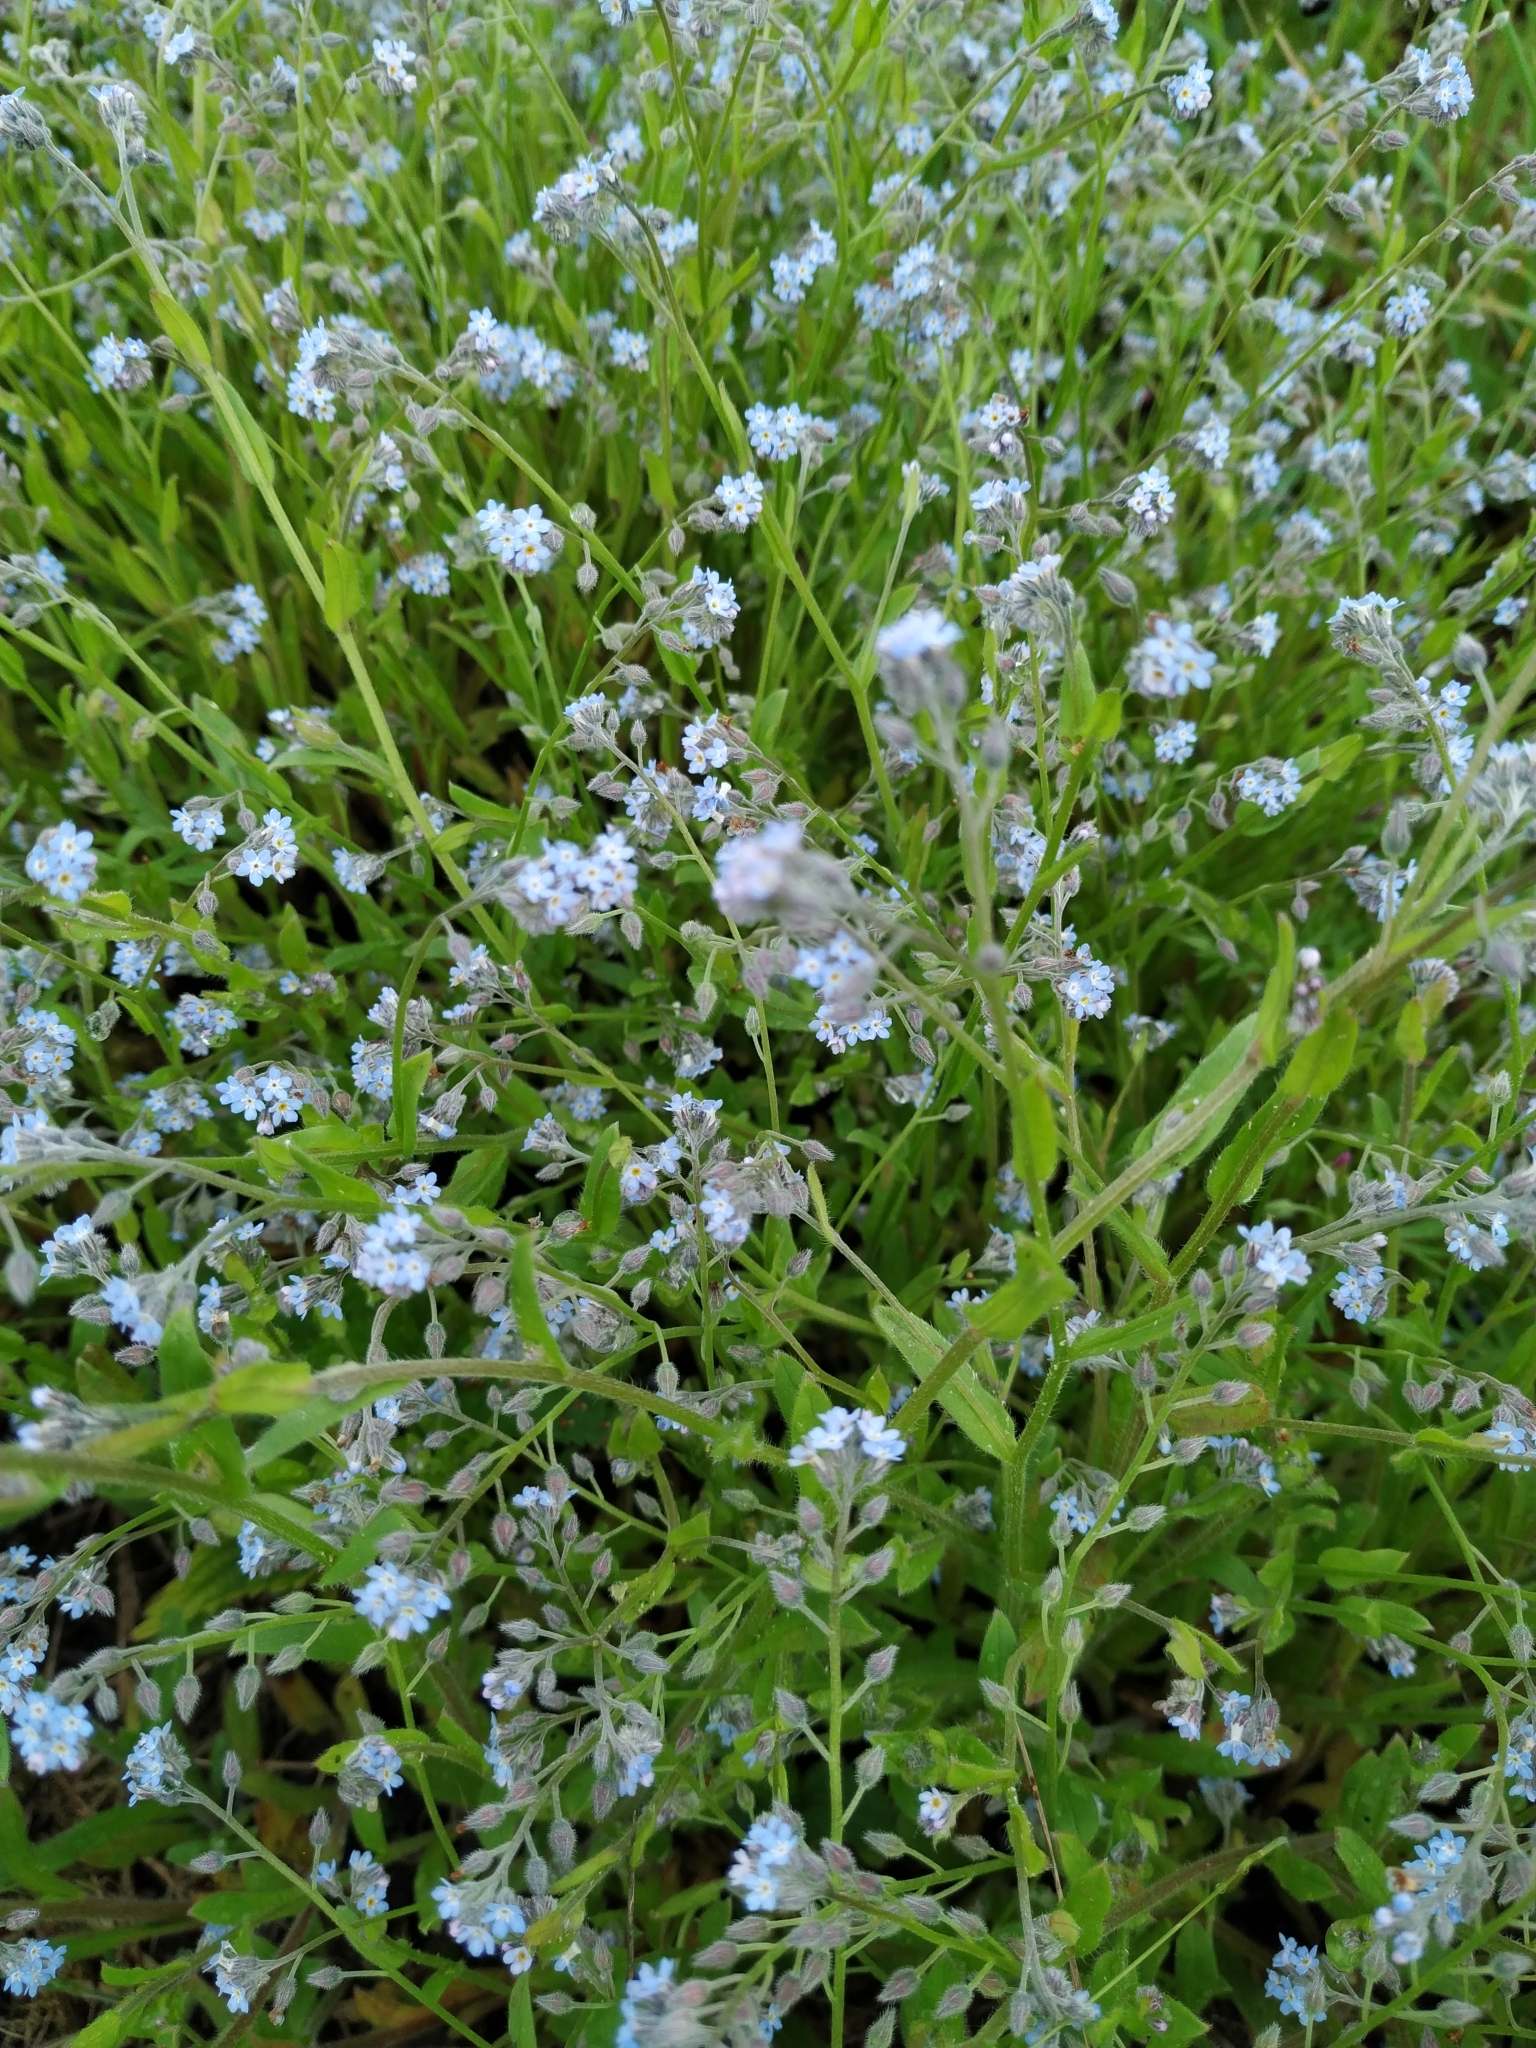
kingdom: Plantae
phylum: Tracheophyta
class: Magnoliopsida
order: Boraginales
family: Boraginaceae
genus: Myosotis
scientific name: Myosotis arvensis
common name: Field forget-me-not
